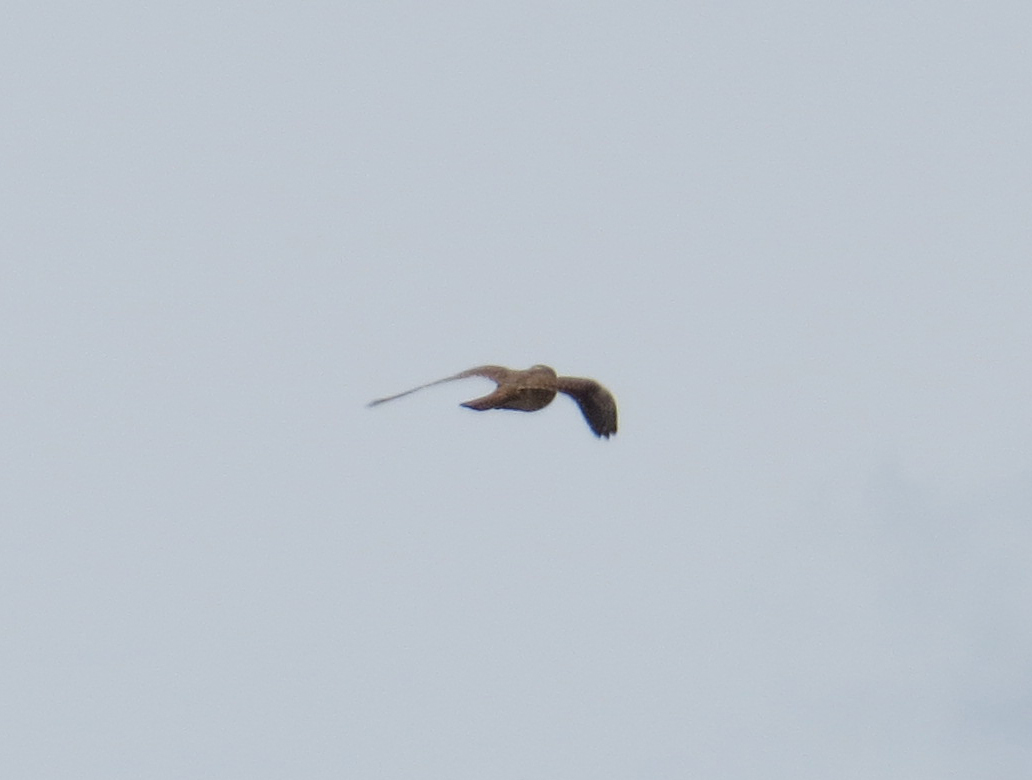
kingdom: Animalia
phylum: Chordata
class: Aves
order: Falconiformes
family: Falconidae
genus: Falco
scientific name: Falco sparverius
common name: American kestrel
